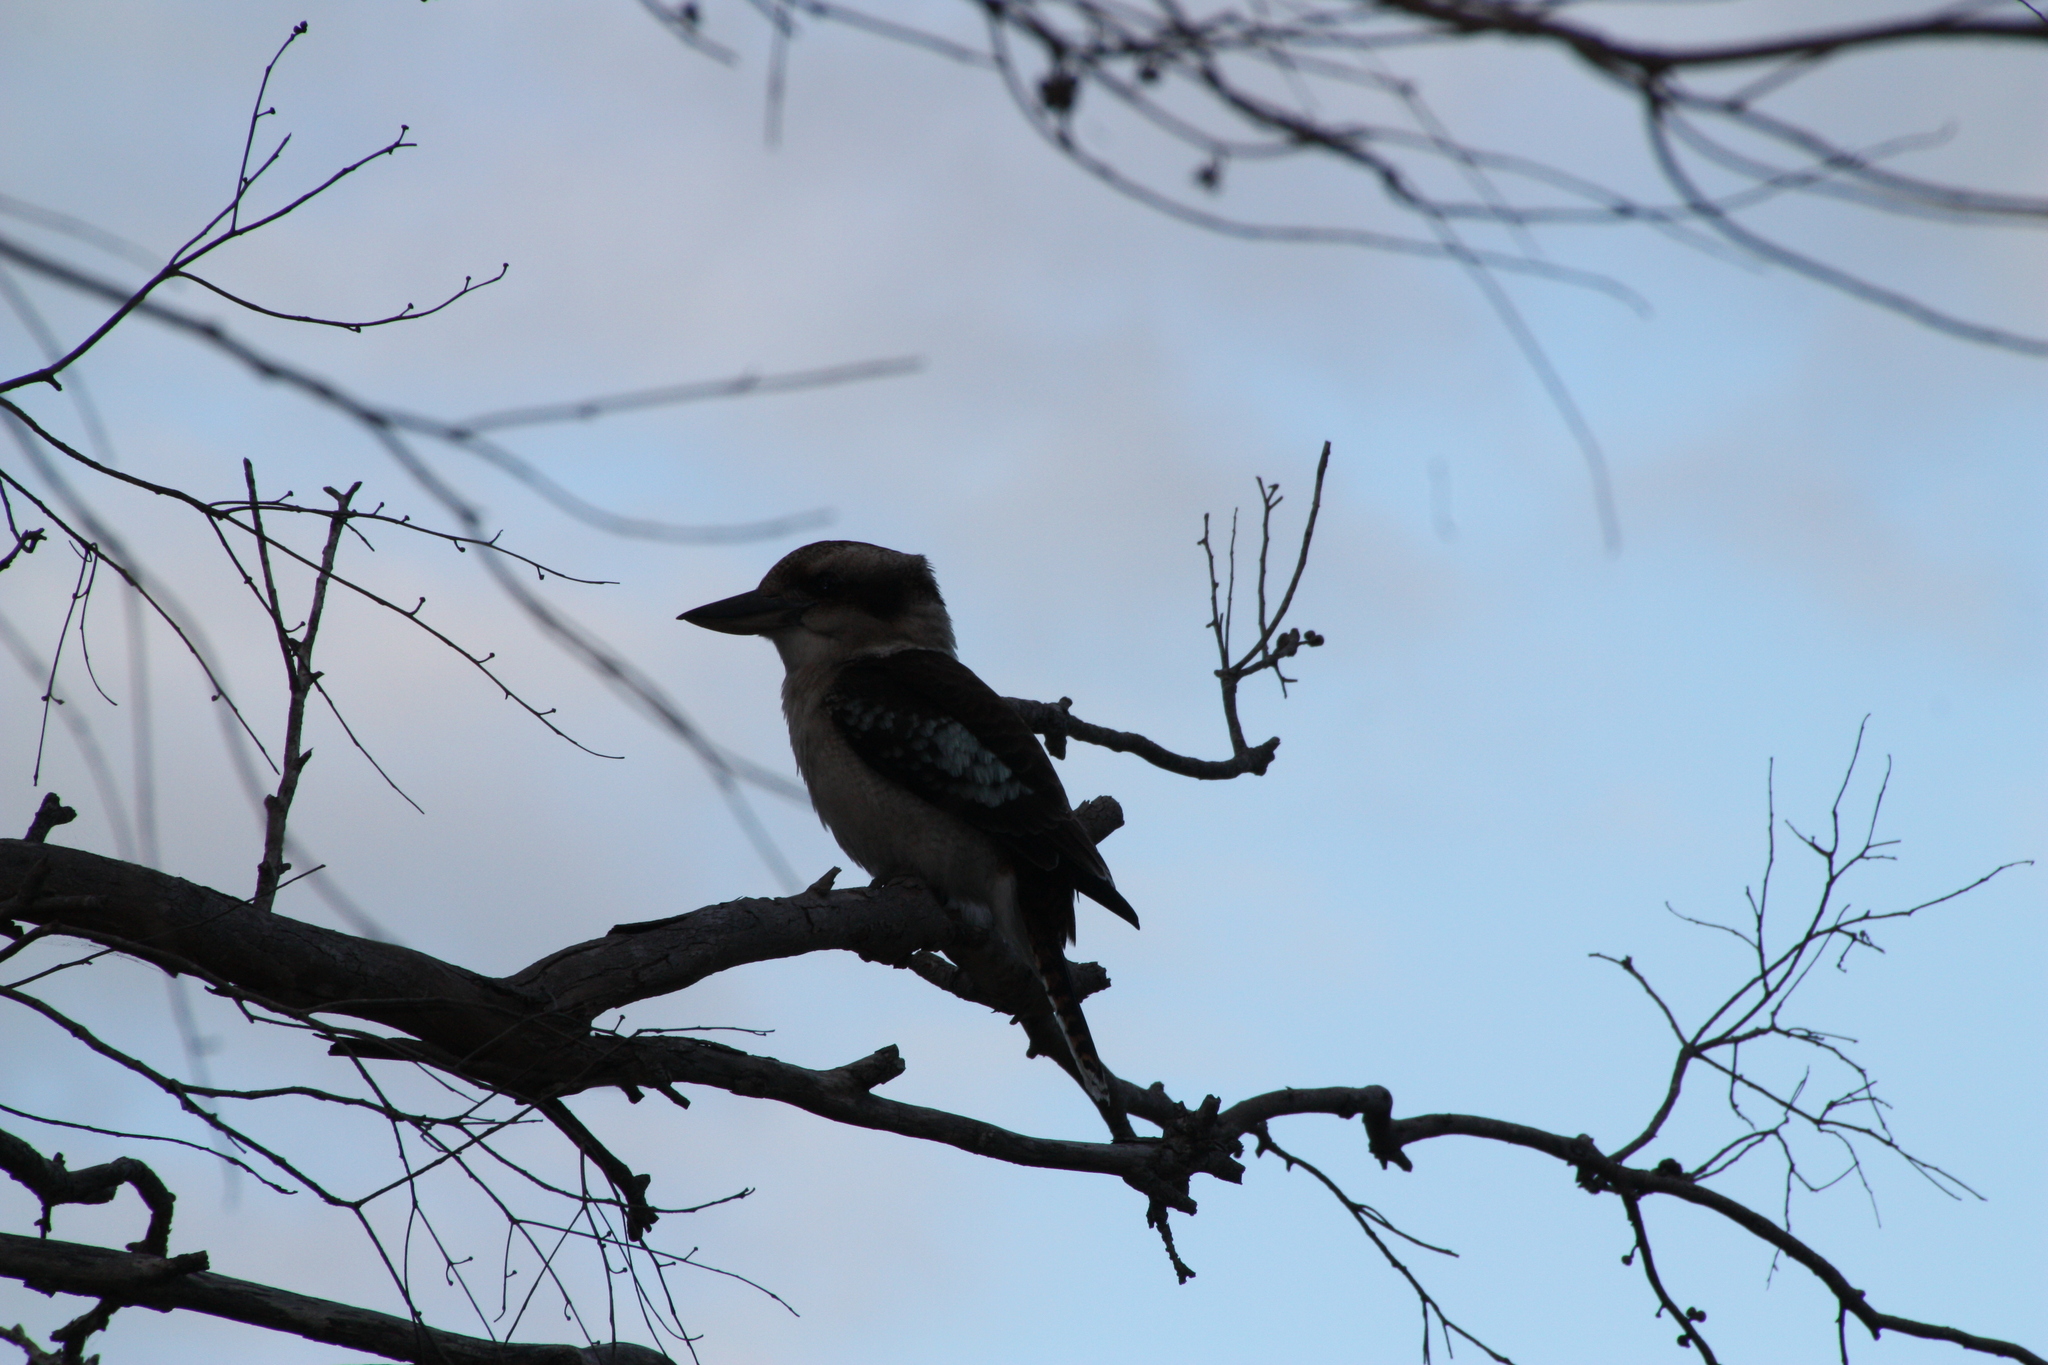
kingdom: Animalia
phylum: Chordata
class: Aves
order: Coraciiformes
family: Alcedinidae
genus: Dacelo
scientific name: Dacelo novaeguineae
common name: Laughing kookaburra
